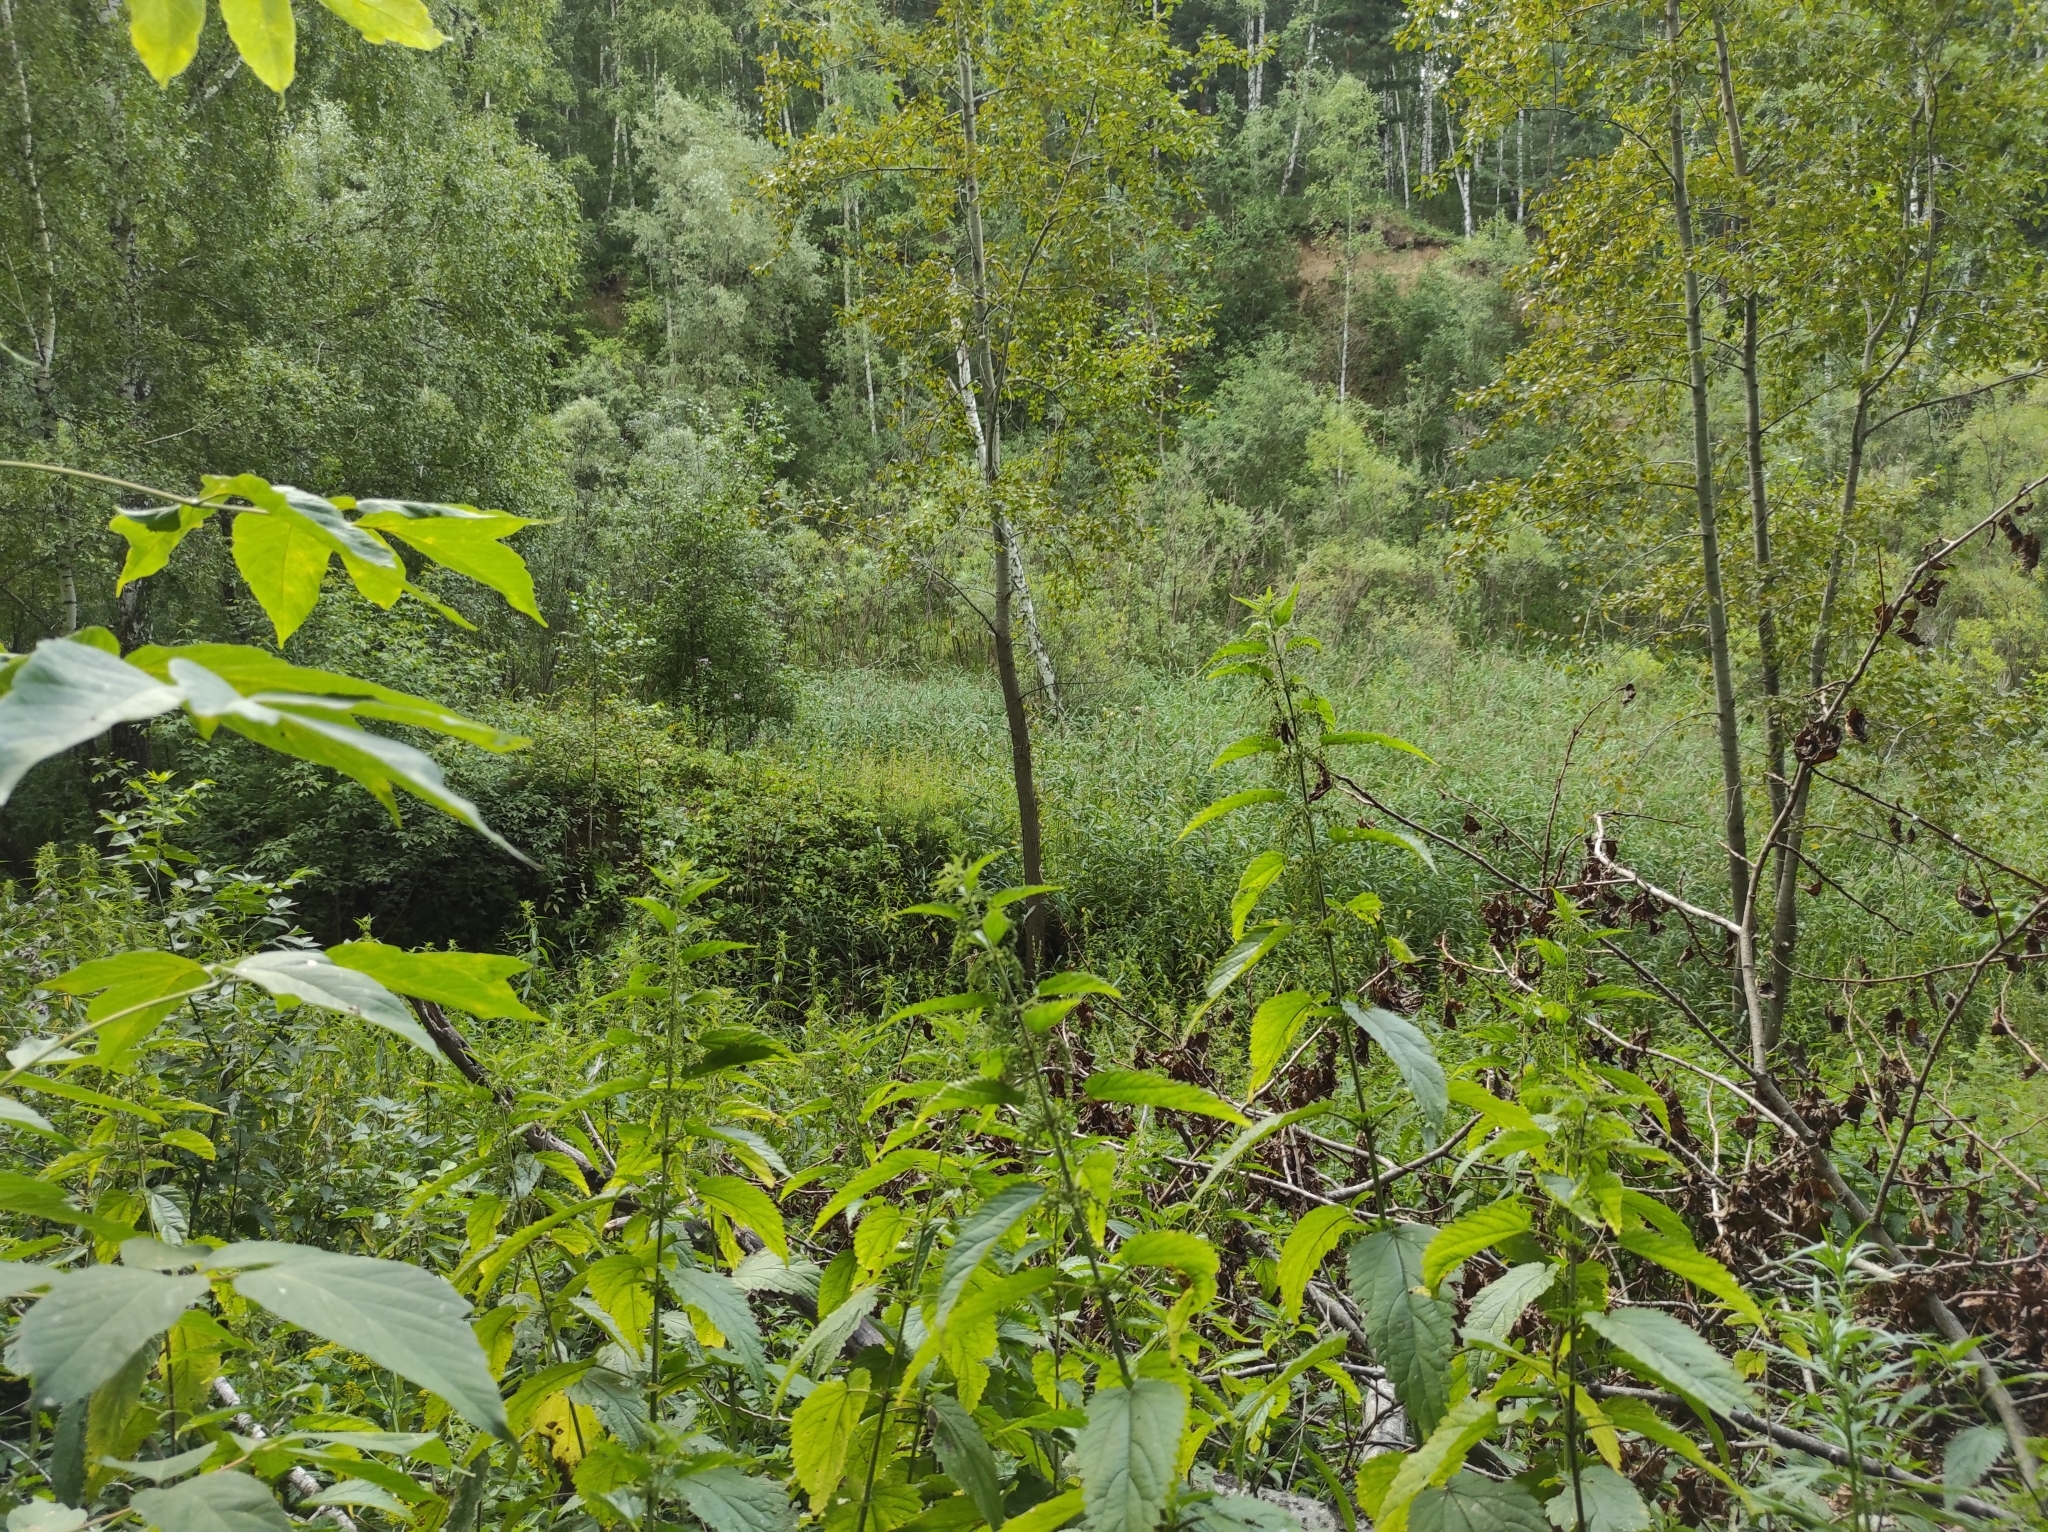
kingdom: Plantae
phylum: Tracheophyta
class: Magnoliopsida
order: Malpighiales
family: Salicaceae
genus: Populus
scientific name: Populus tremula
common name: European aspen
